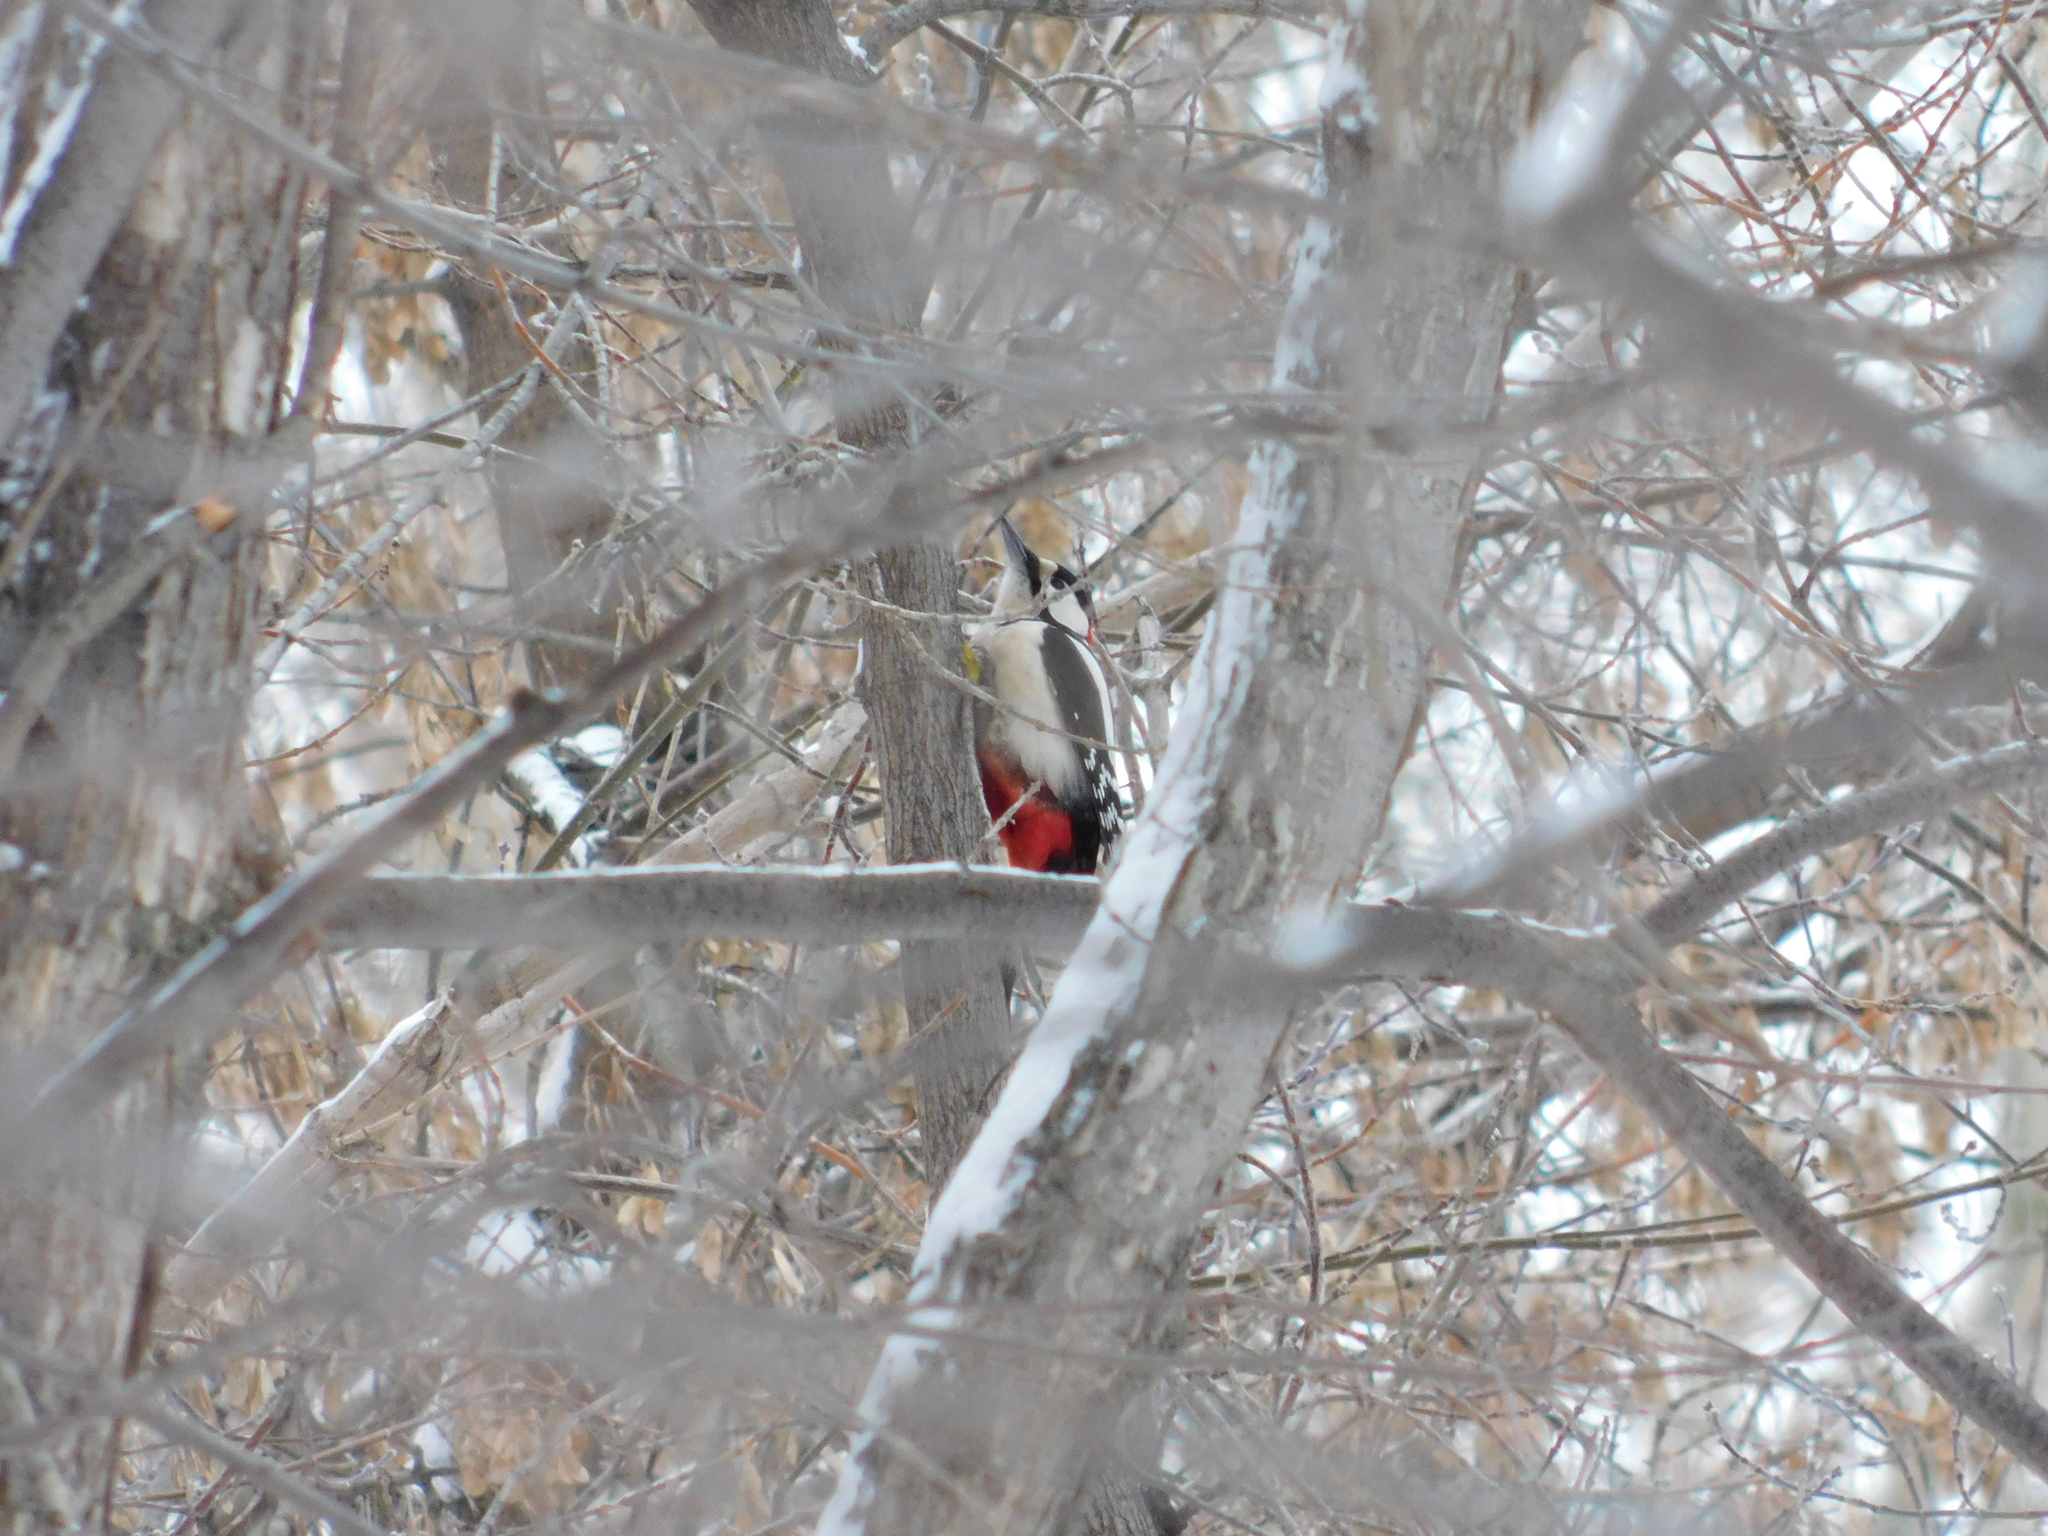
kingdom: Animalia
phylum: Chordata
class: Aves
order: Piciformes
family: Picidae
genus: Dendrocopos
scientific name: Dendrocopos major
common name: Great spotted woodpecker
